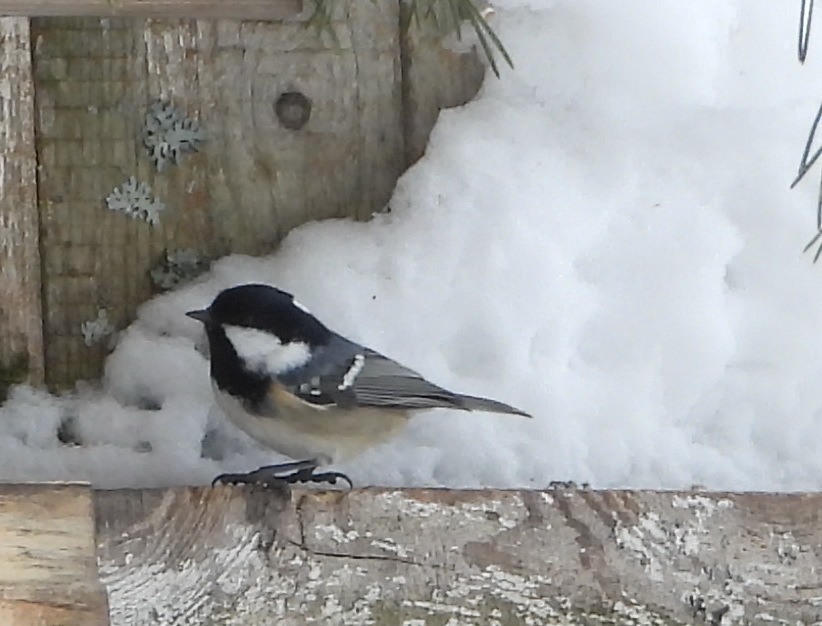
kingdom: Animalia
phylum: Chordata
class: Aves
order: Passeriformes
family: Paridae
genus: Periparus
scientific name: Periparus ater
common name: Coal tit
